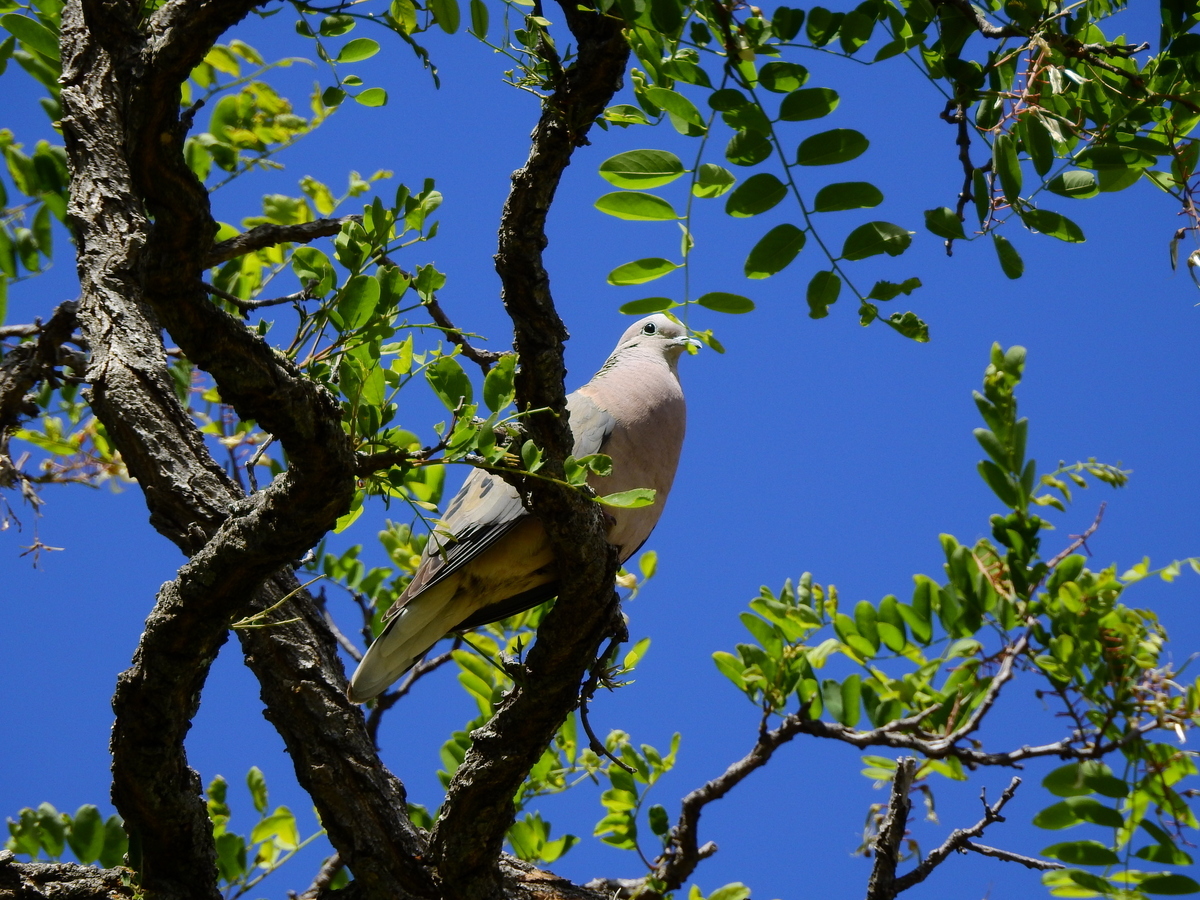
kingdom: Animalia
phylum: Chordata
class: Aves
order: Columbiformes
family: Columbidae
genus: Zenaida
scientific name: Zenaida auriculata
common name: Eared dove
